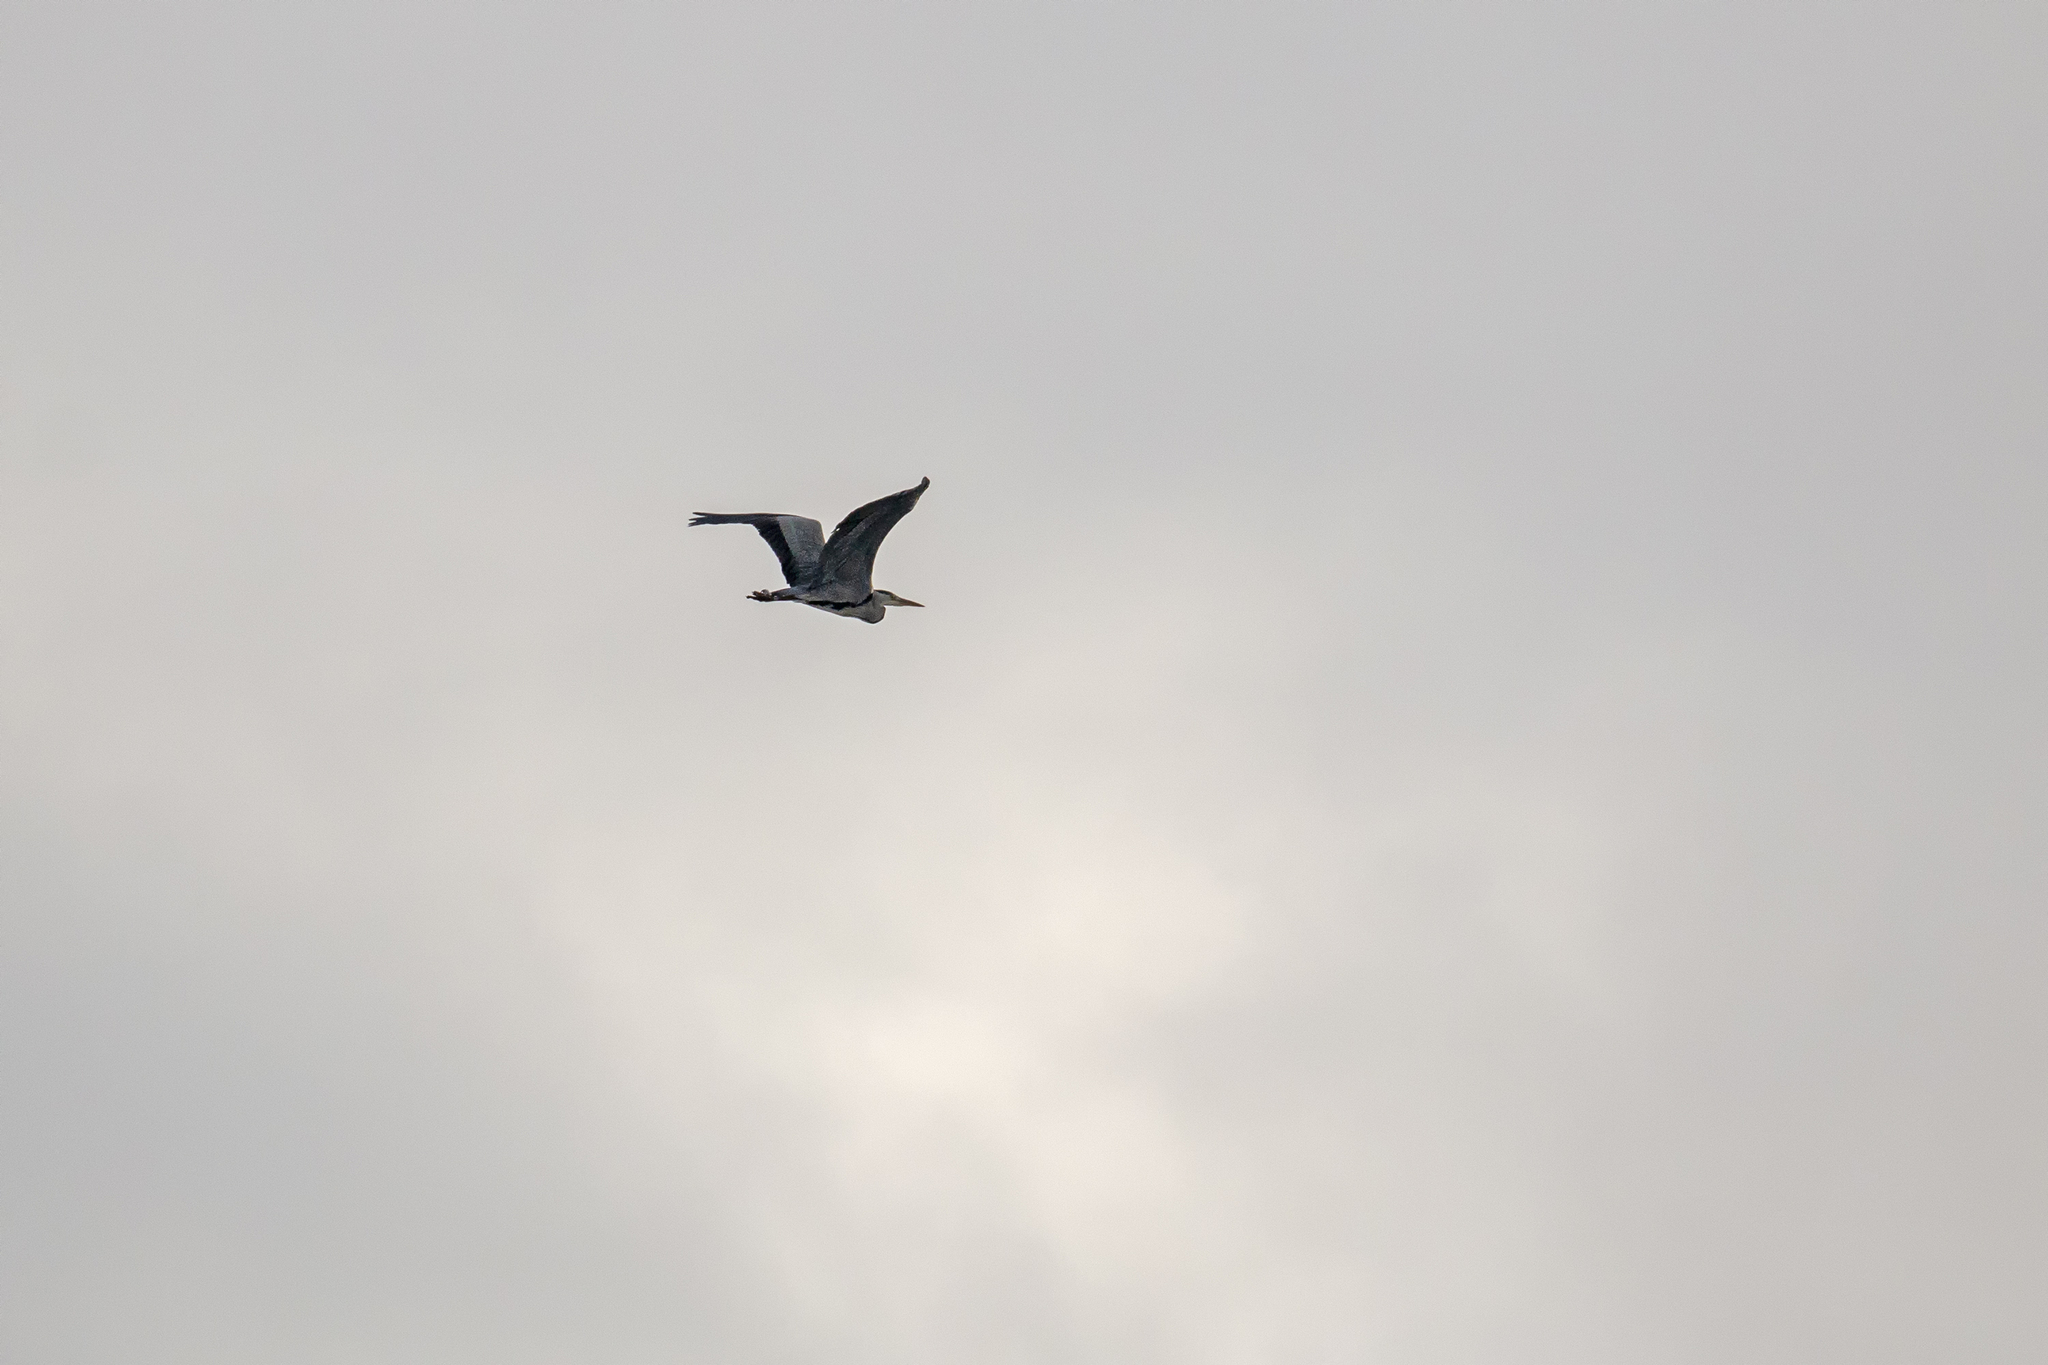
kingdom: Animalia
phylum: Chordata
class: Aves
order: Pelecaniformes
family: Ardeidae
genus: Ardea
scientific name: Ardea cinerea
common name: Grey heron
